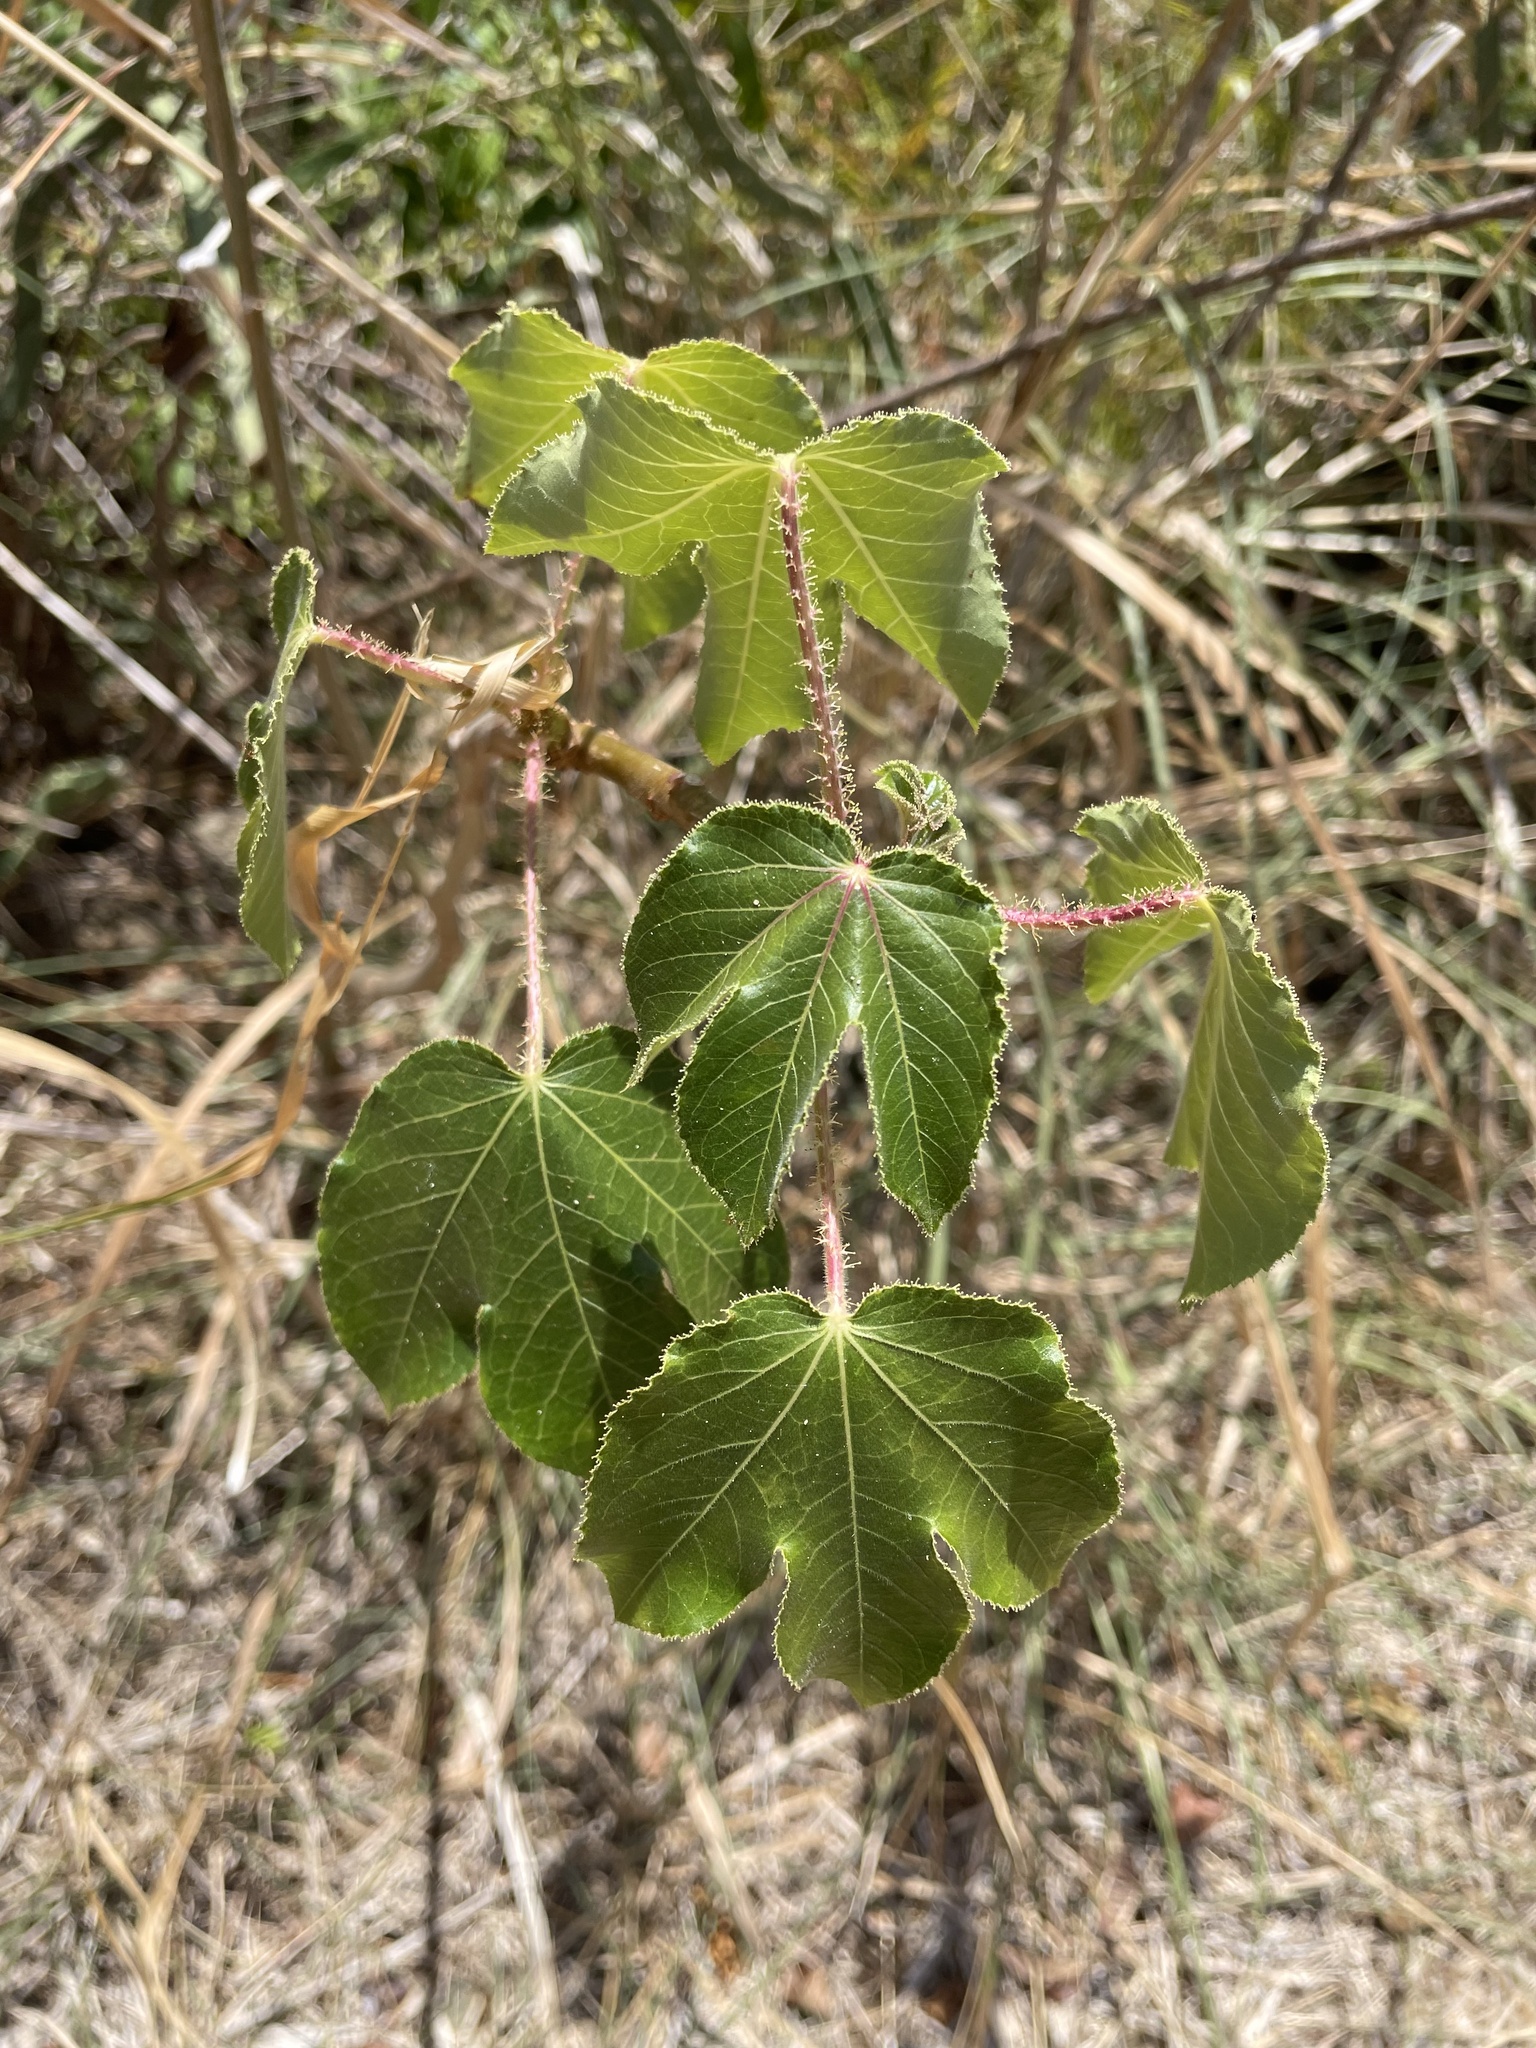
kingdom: Plantae
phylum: Tracheophyta
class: Magnoliopsida
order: Malpighiales
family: Euphorbiaceae
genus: Jatropha
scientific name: Jatropha gossypiifolia
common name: Bellyache bush
